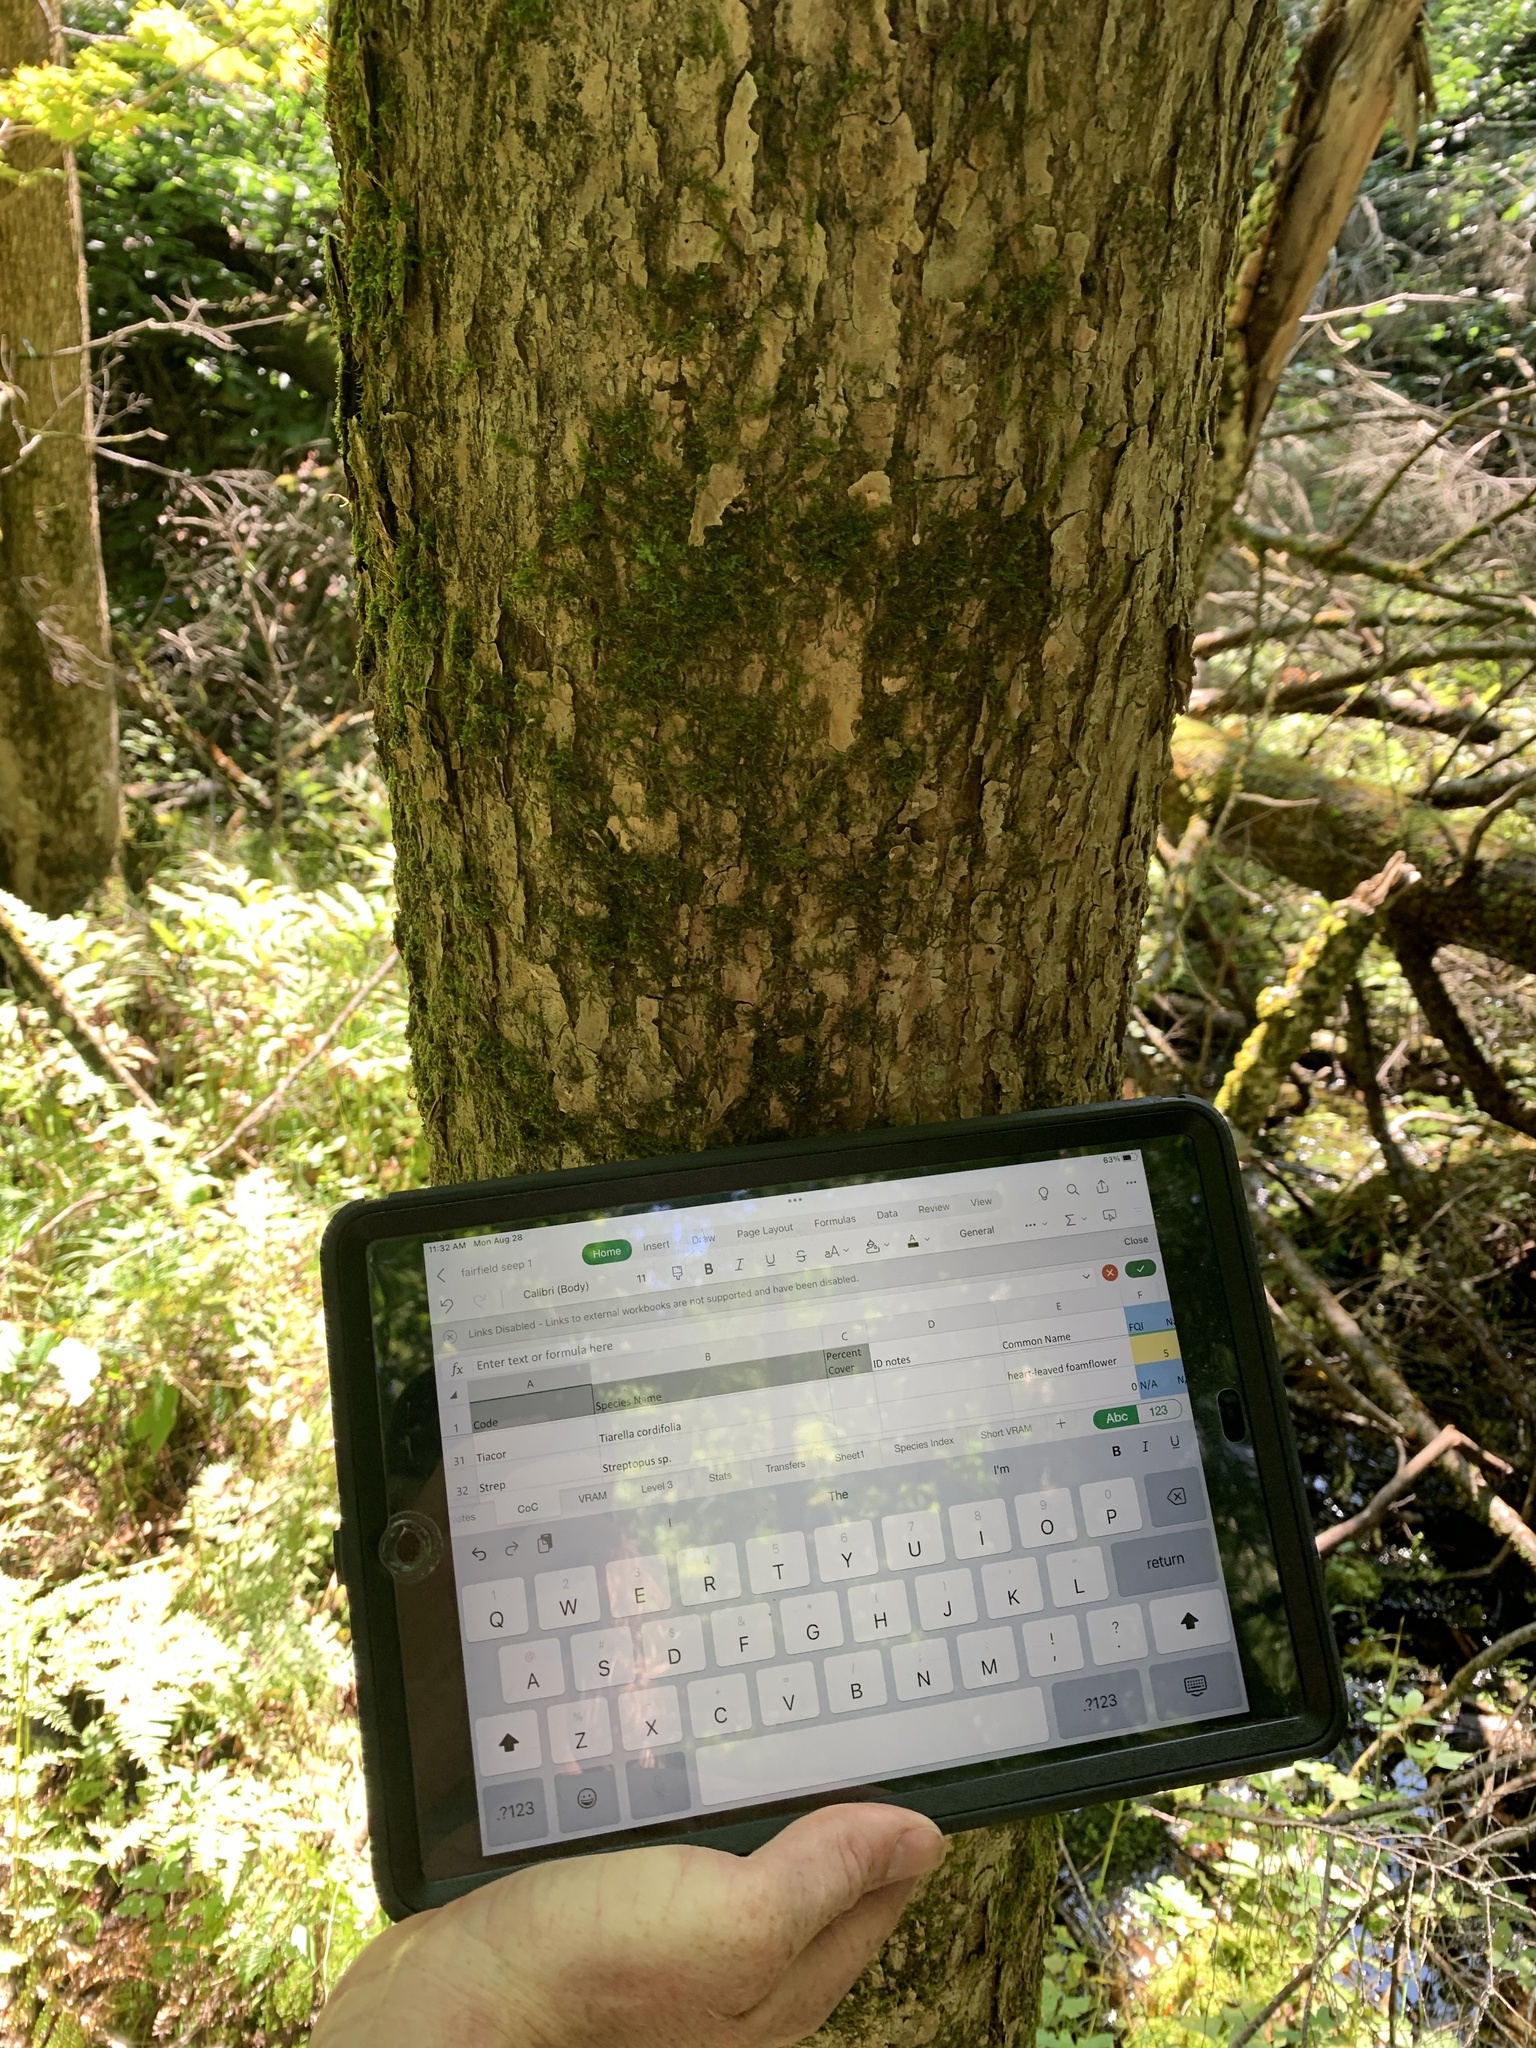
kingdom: Plantae
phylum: Tracheophyta
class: Magnoliopsida
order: Lamiales
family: Oleaceae
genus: Fraxinus
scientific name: Fraxinus nigra
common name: Black ash
